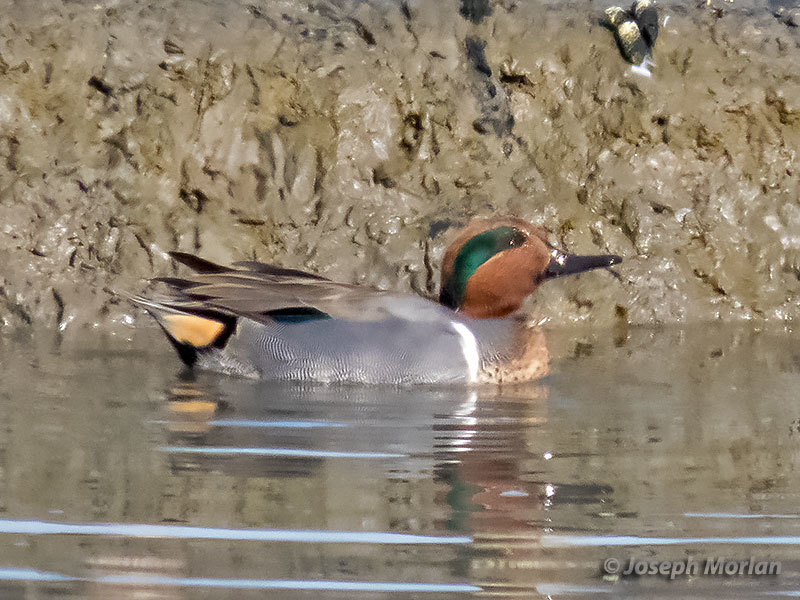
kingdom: Animalia
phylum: Chordata
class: Aves
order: Anseriformes
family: Anatidae
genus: Anas
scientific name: Anas crecca
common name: Eurasian teal
